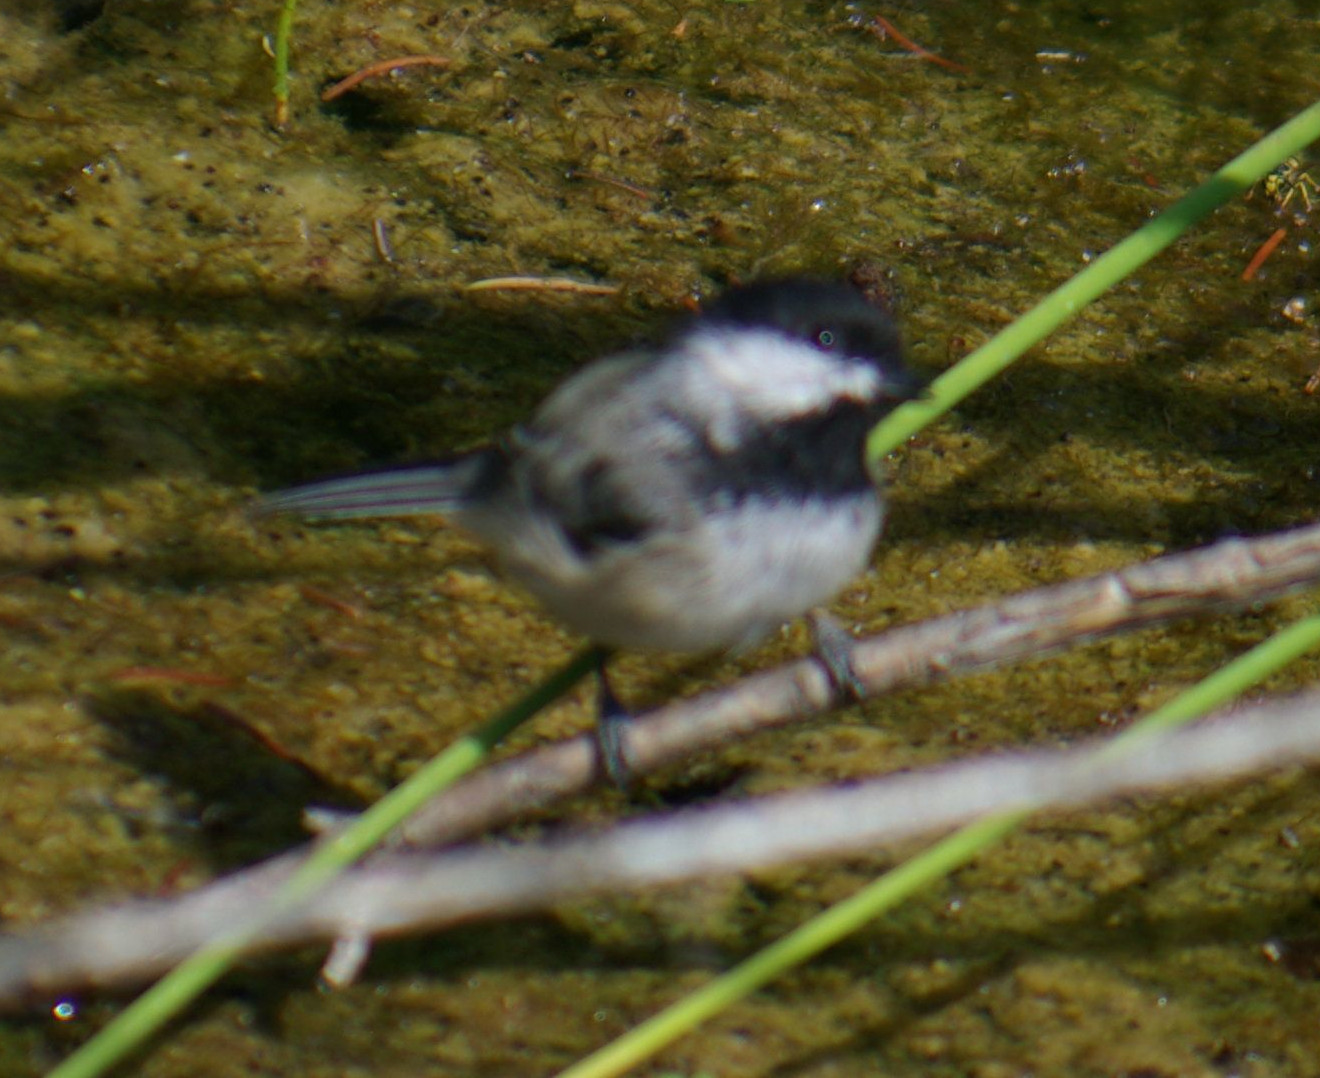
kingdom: Animalia
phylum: Chordata
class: Aves
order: Passeriformes
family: Paridae
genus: Poecile
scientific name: Poecile atricapillus
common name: Black-capped chickadee
